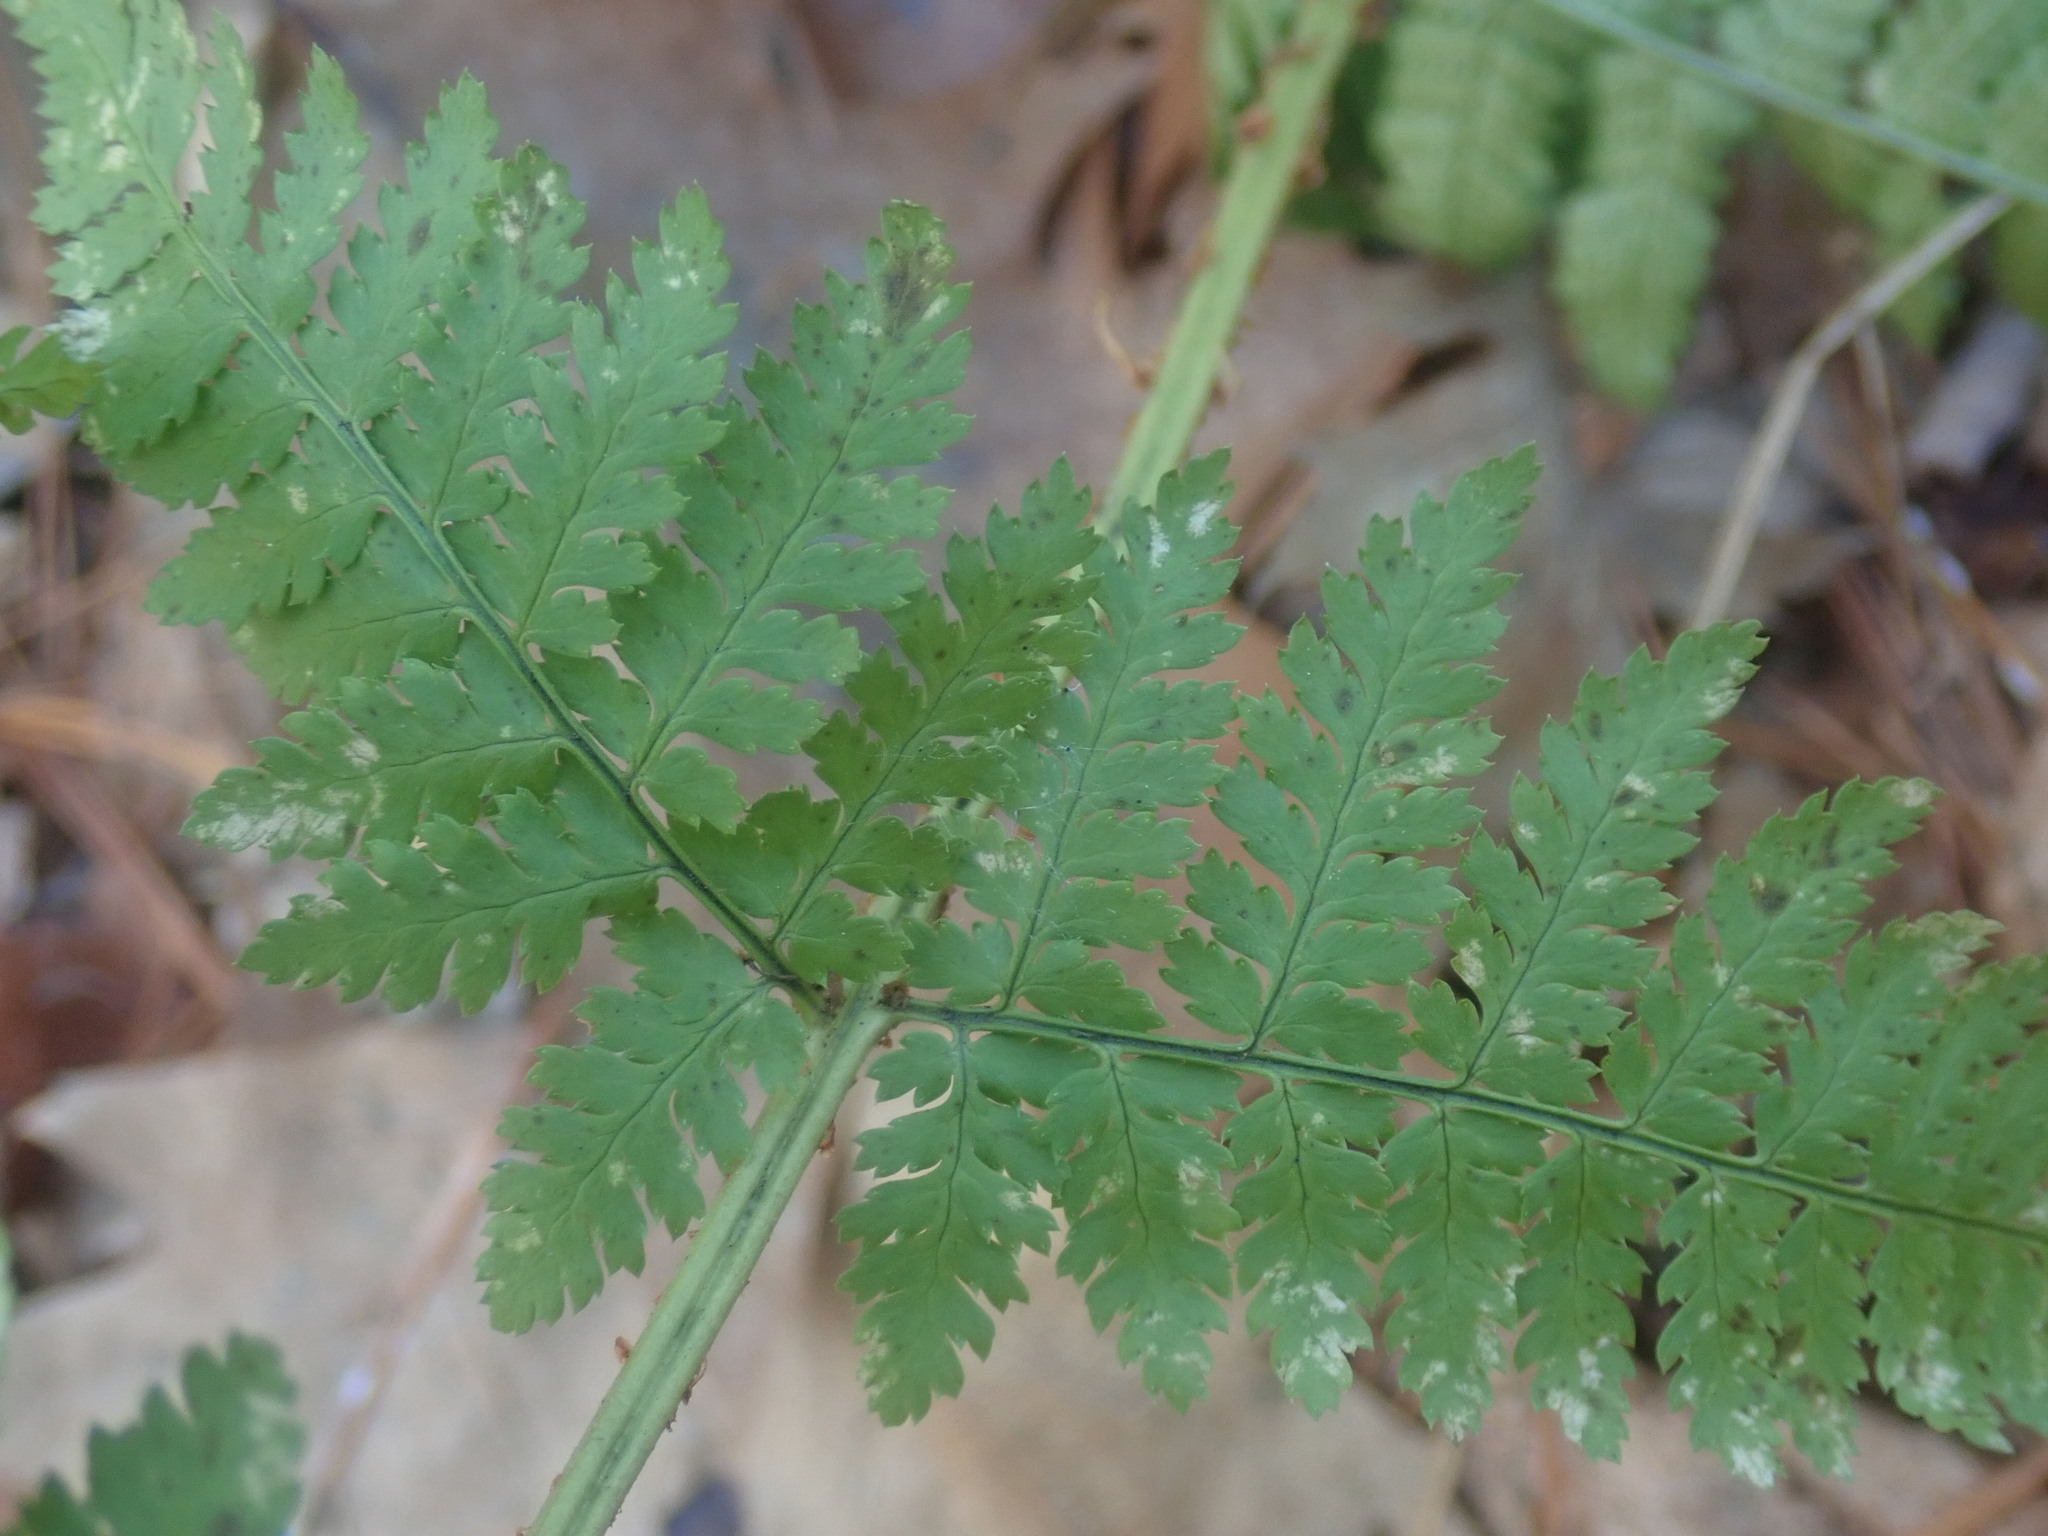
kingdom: Plantae
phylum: Tracheophyta
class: Polypodiopsida
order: Polypodiales
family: Dryopteridaceae
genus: Dryopteris
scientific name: Dryopteris intermedia
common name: Evergreen wood fern
